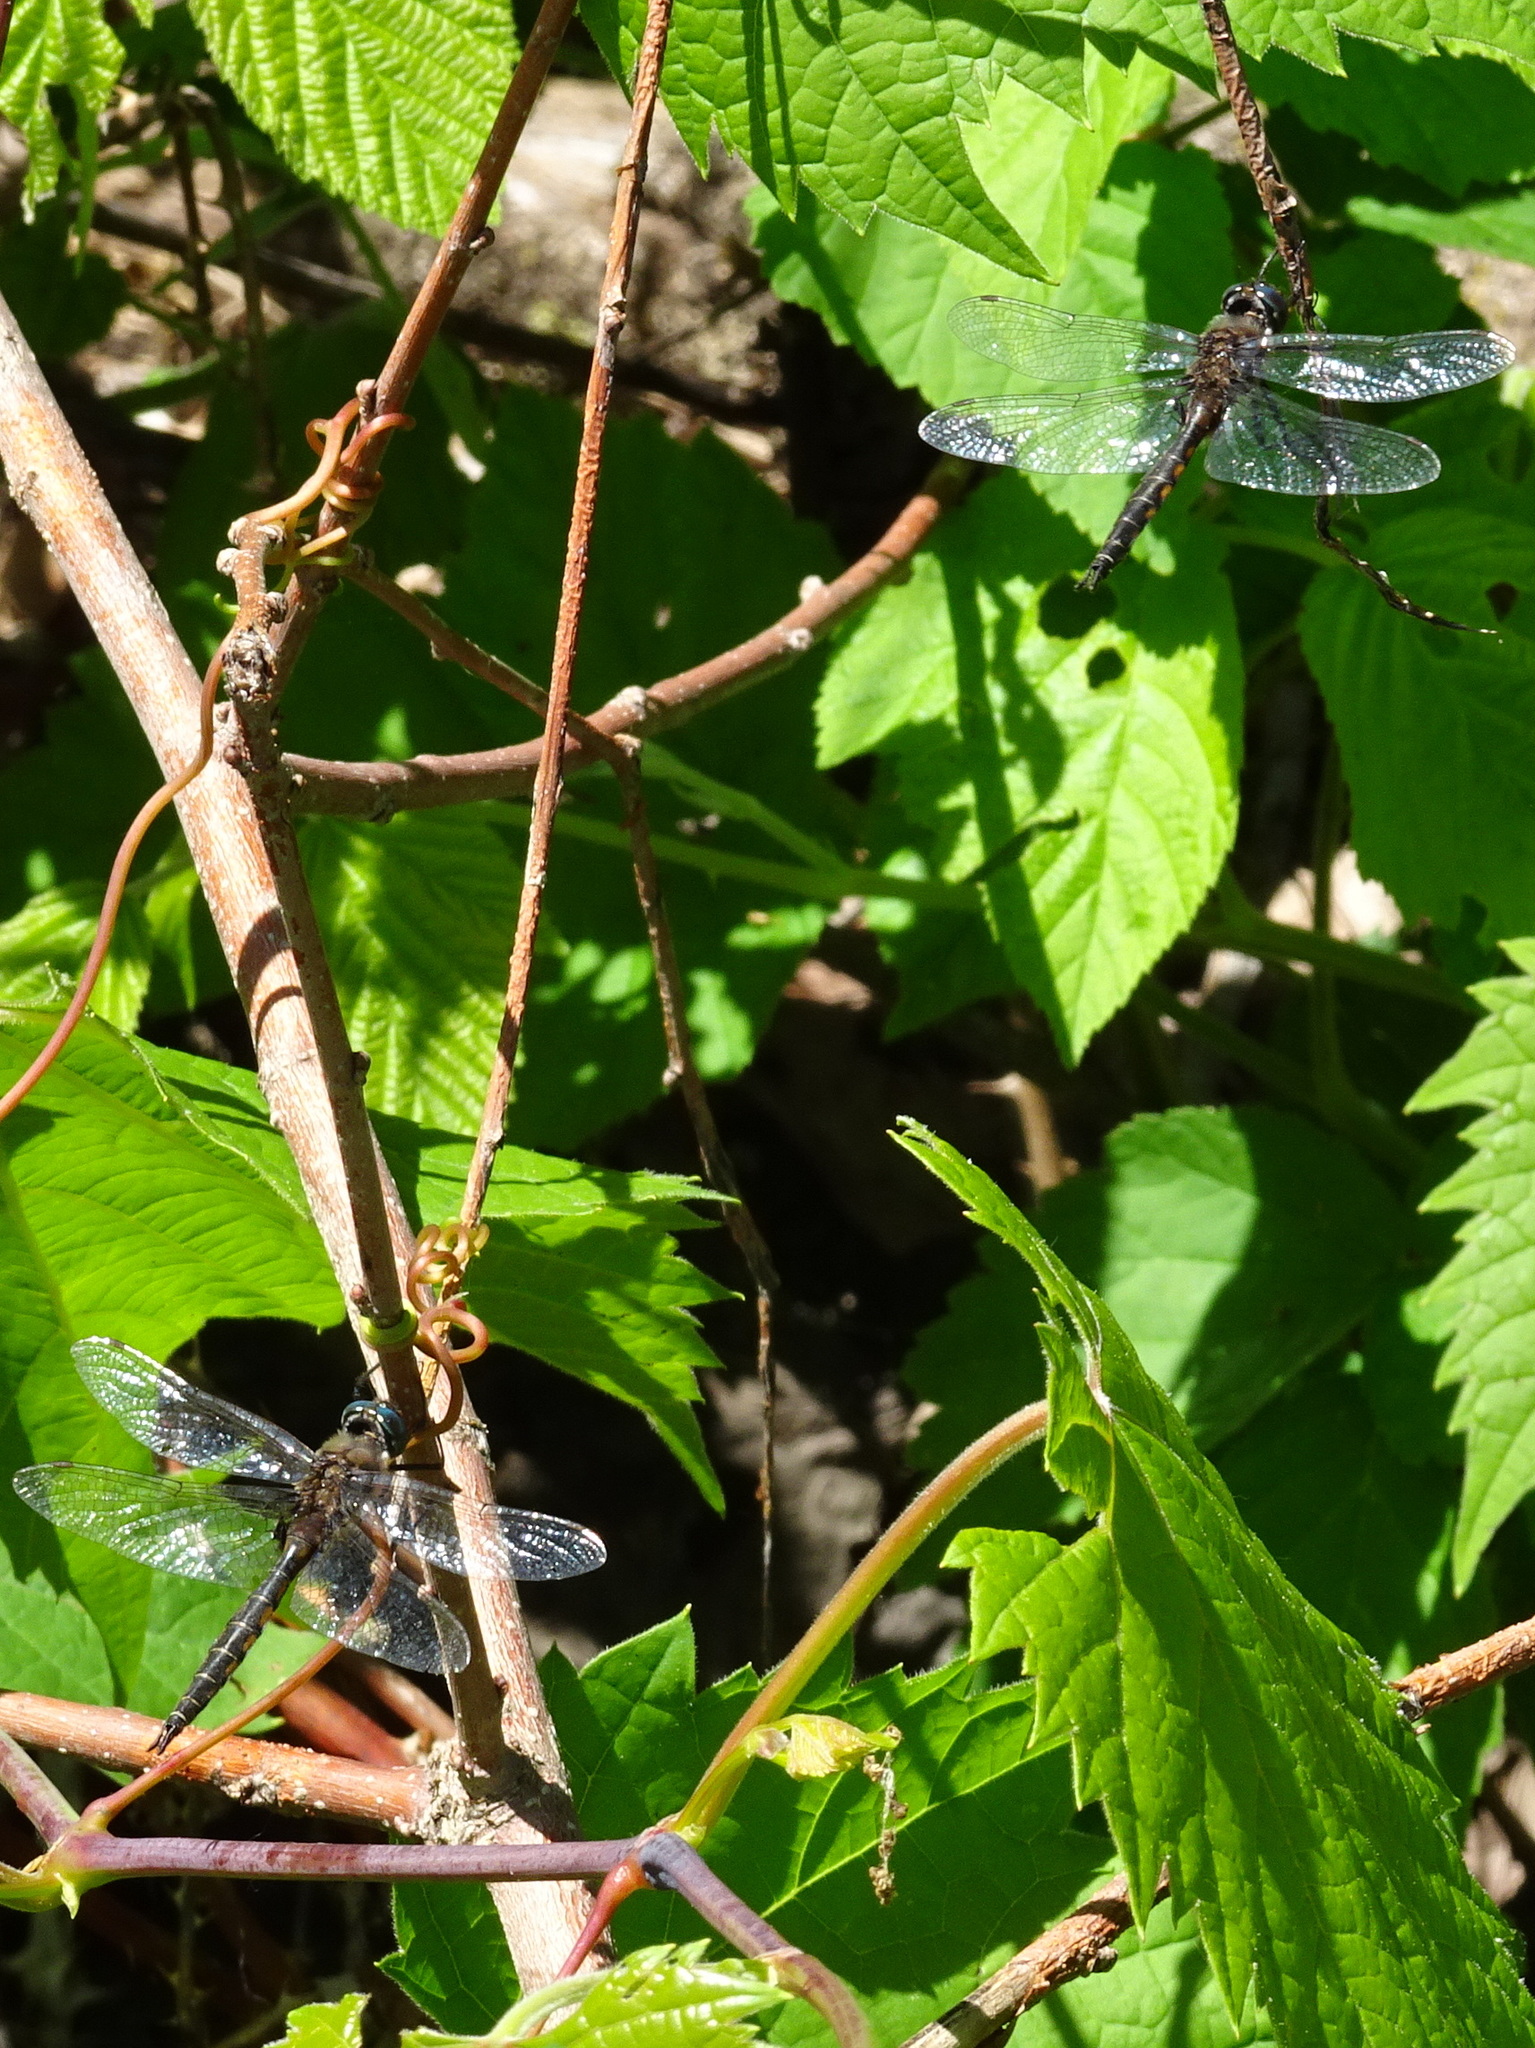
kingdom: Animalia
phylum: Arthropoda
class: Insecta
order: Odonata
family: Corduliidae
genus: Epitheca
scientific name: Epitheca spinigera
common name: Spiny baskettail
